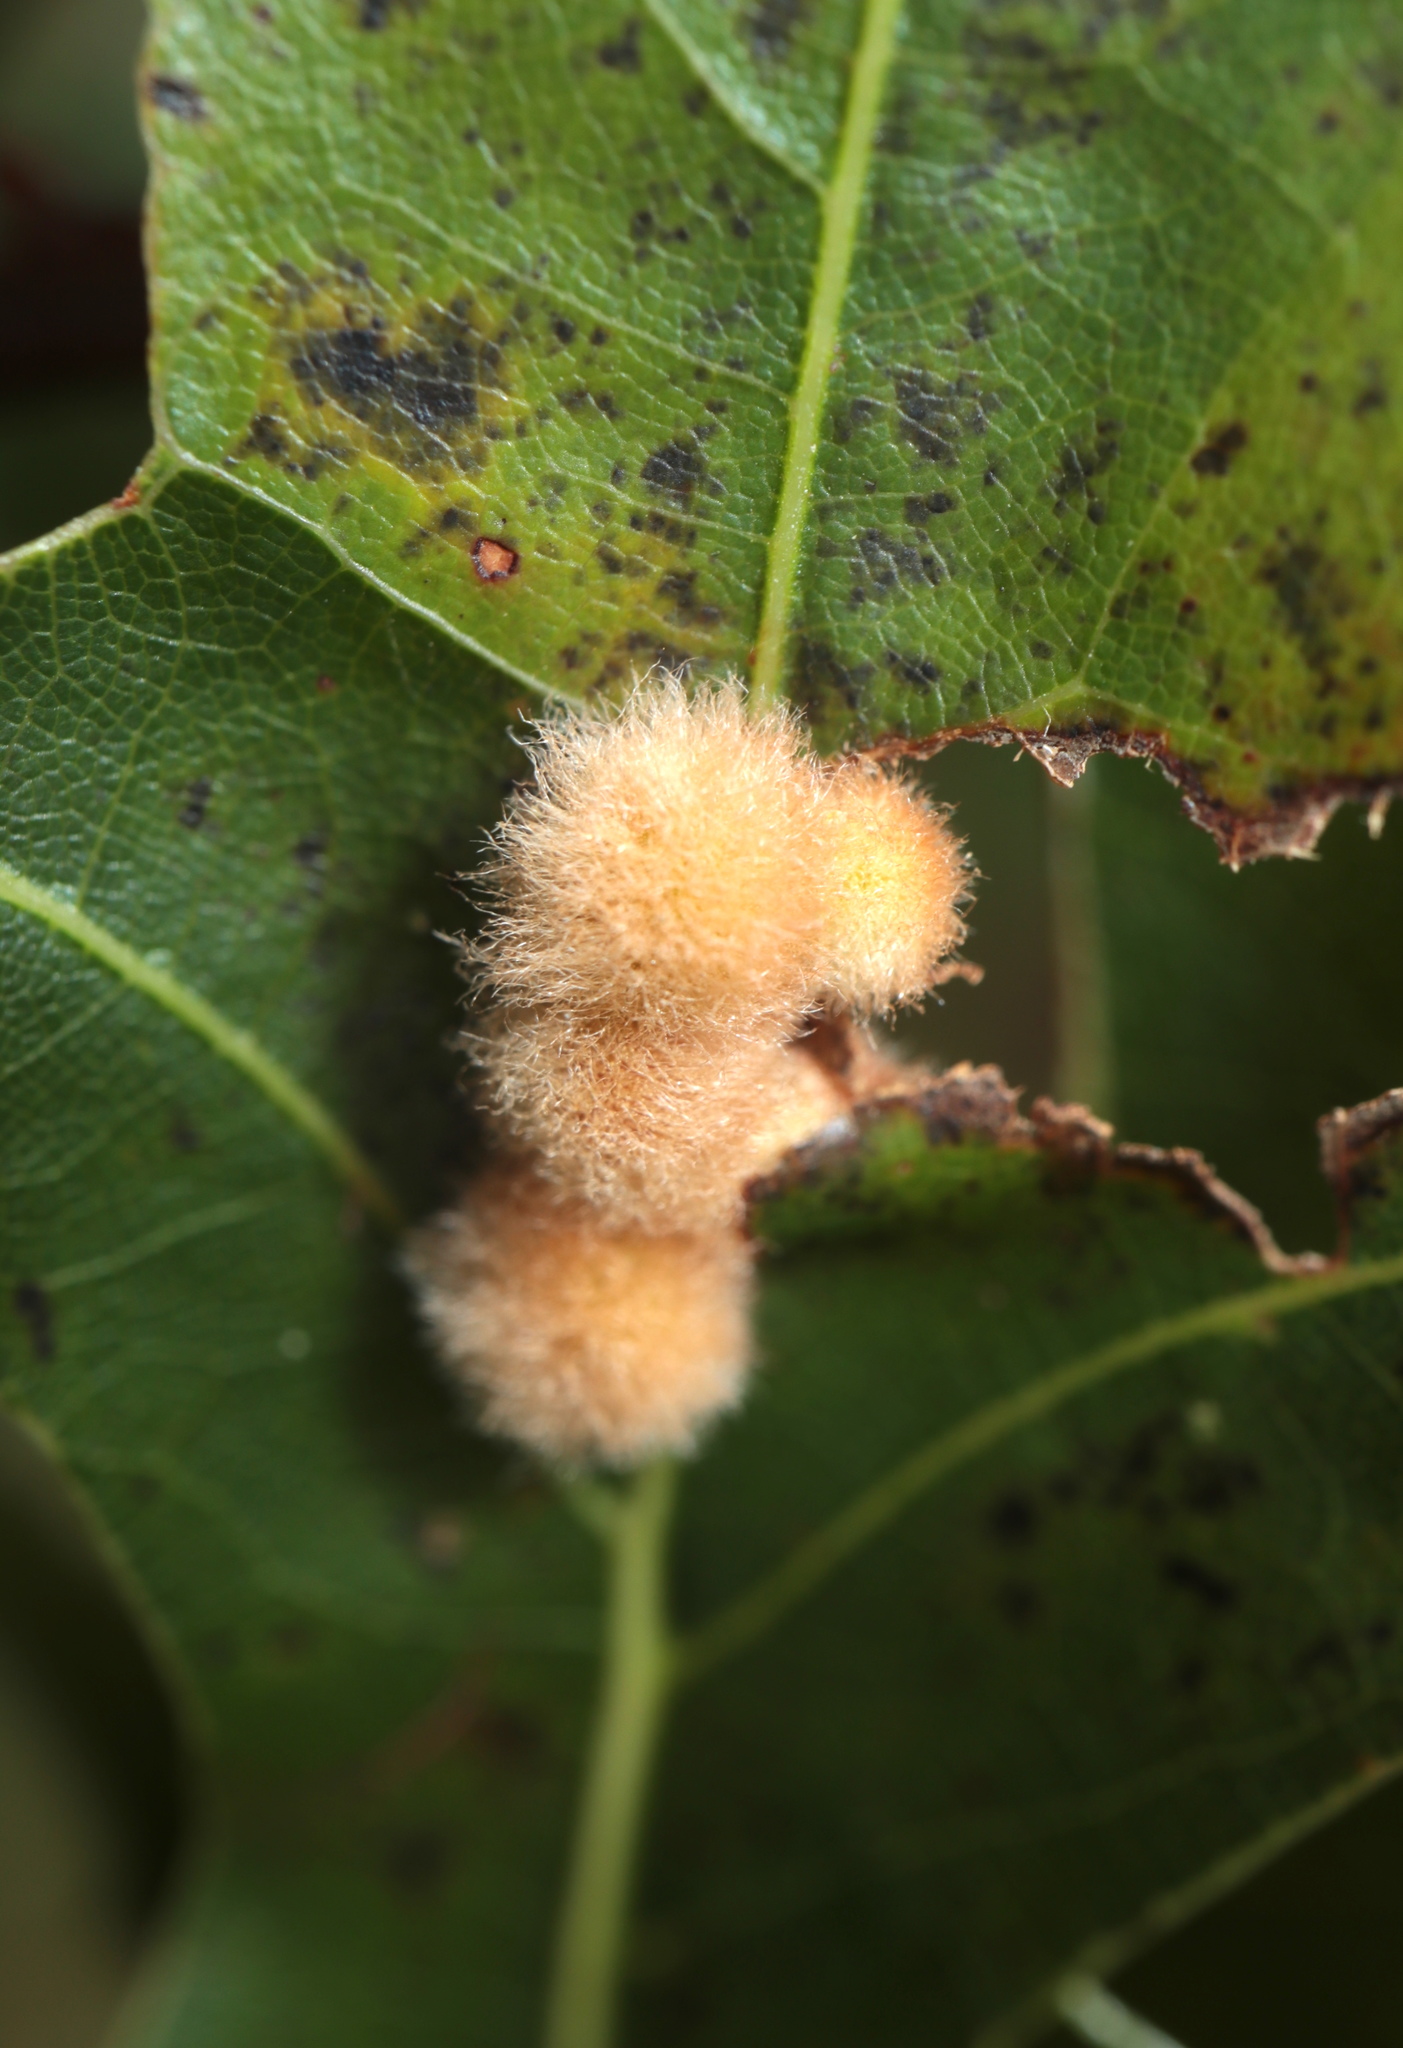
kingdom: Animalia
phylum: Arthropoda
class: Insecta
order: Hymenoptera
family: Cynipidae
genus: Callirhytis
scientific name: Callirhytis
